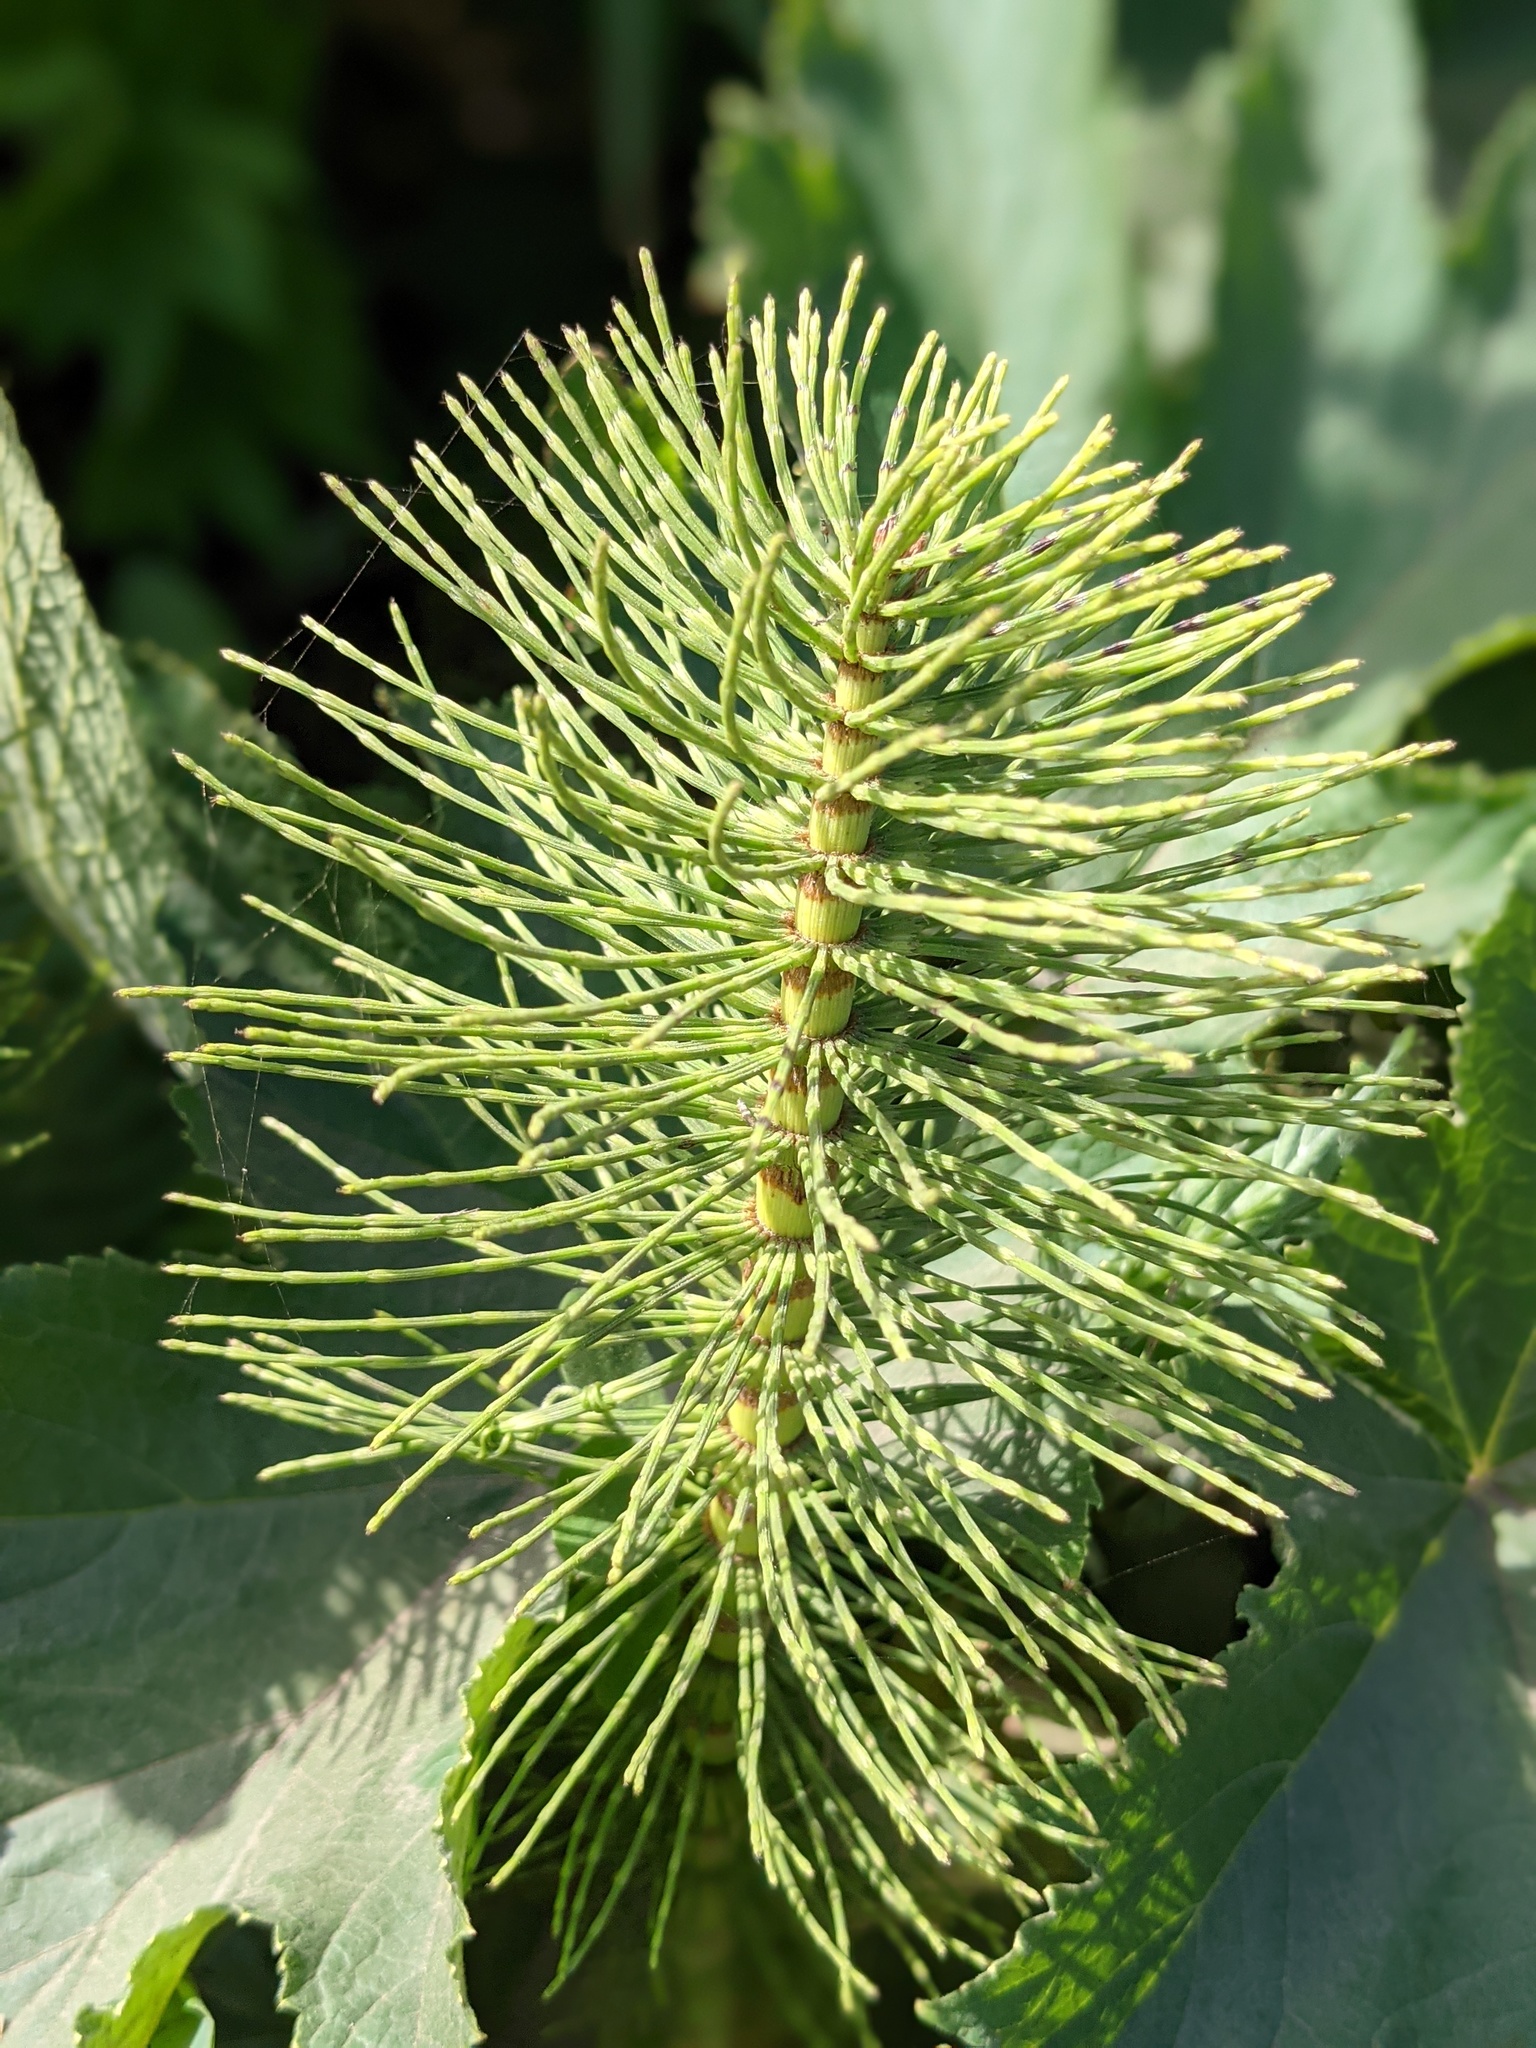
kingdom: Plantae
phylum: Tracheophyta
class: Polypodiopsida
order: Equisetales
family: Equisetaceae
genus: Equisetum
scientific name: Equisetum telmateia
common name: Great horsetail
